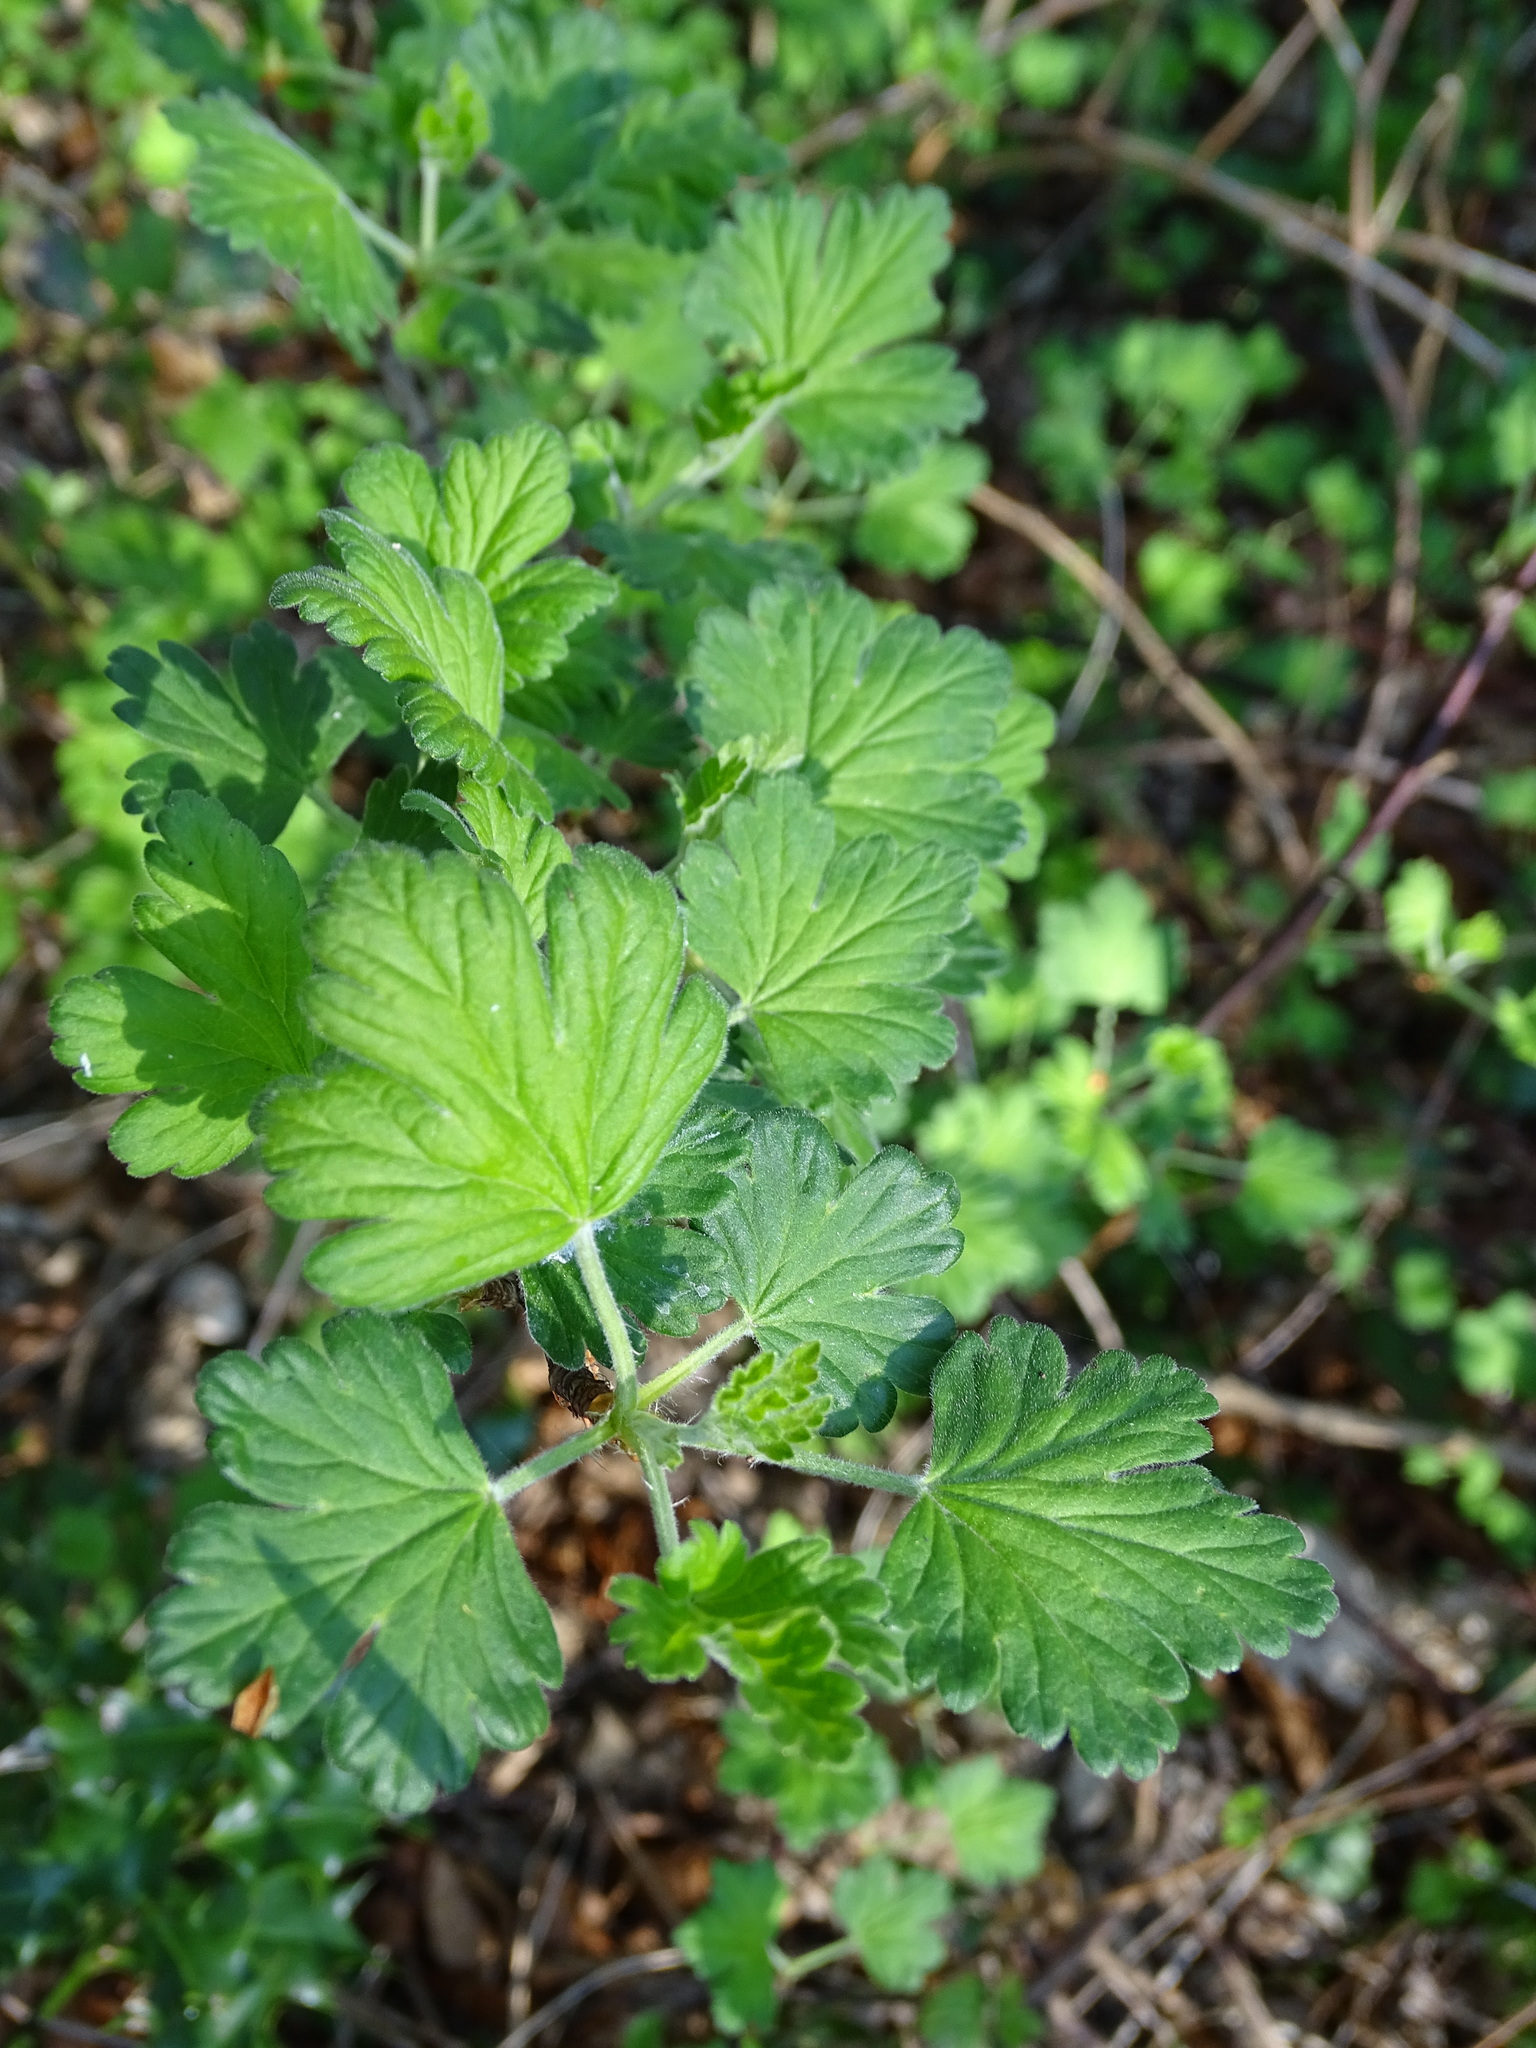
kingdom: Plantae
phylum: Tracheophyta
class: Magnoliopsida
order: Saxifragales
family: Grossulariaceae
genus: Ribes
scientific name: Ribes uva-crispa
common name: Gooseberry
